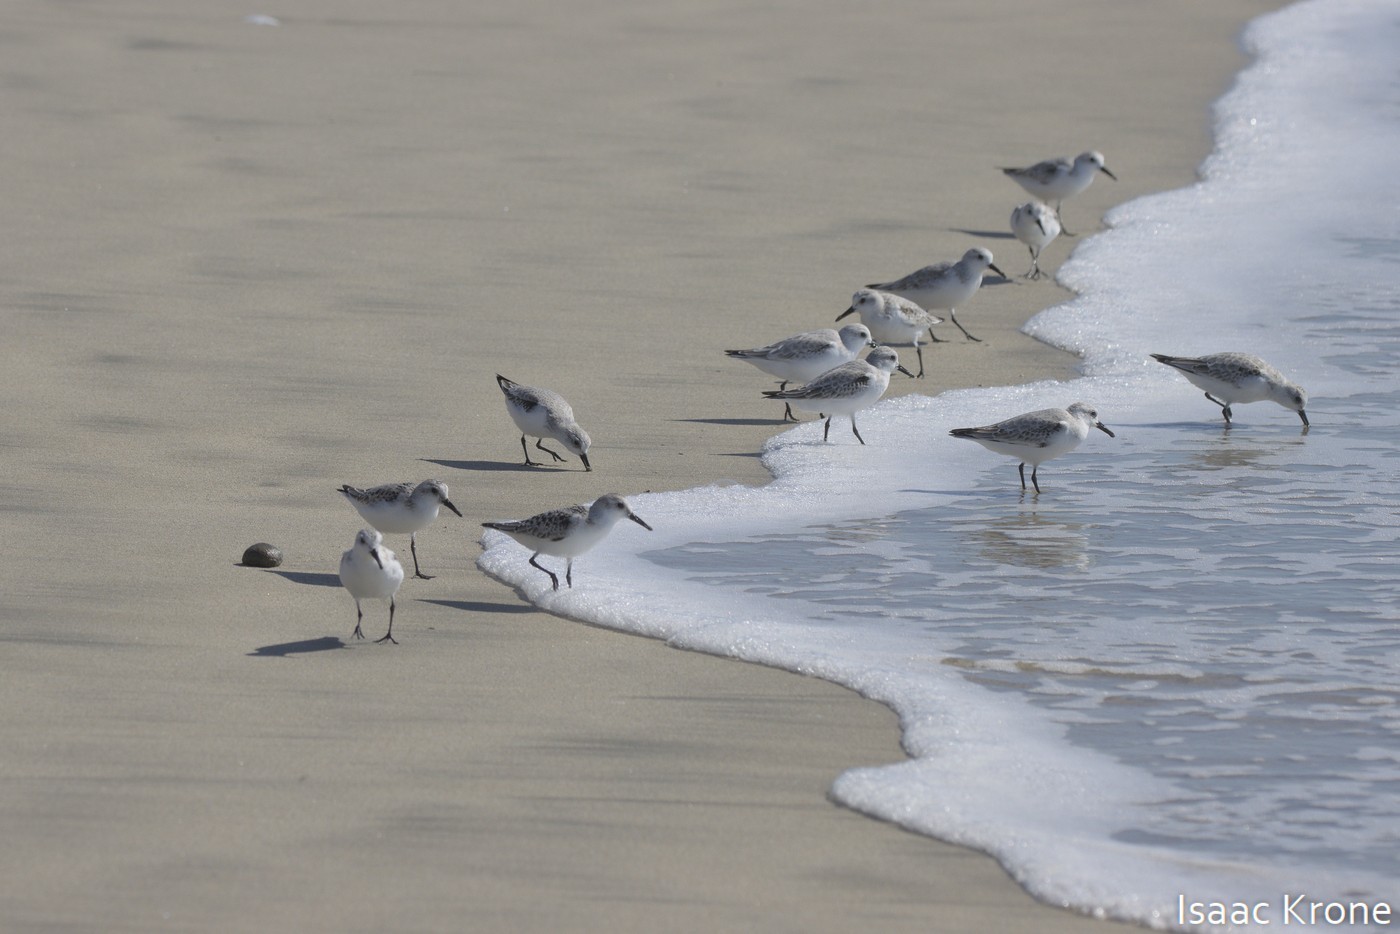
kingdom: Animalia
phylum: Chordata
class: Aves
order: Charadriiformes
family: Scolopacidae
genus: Calidris
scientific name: Calidris alba
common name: Sanderling
